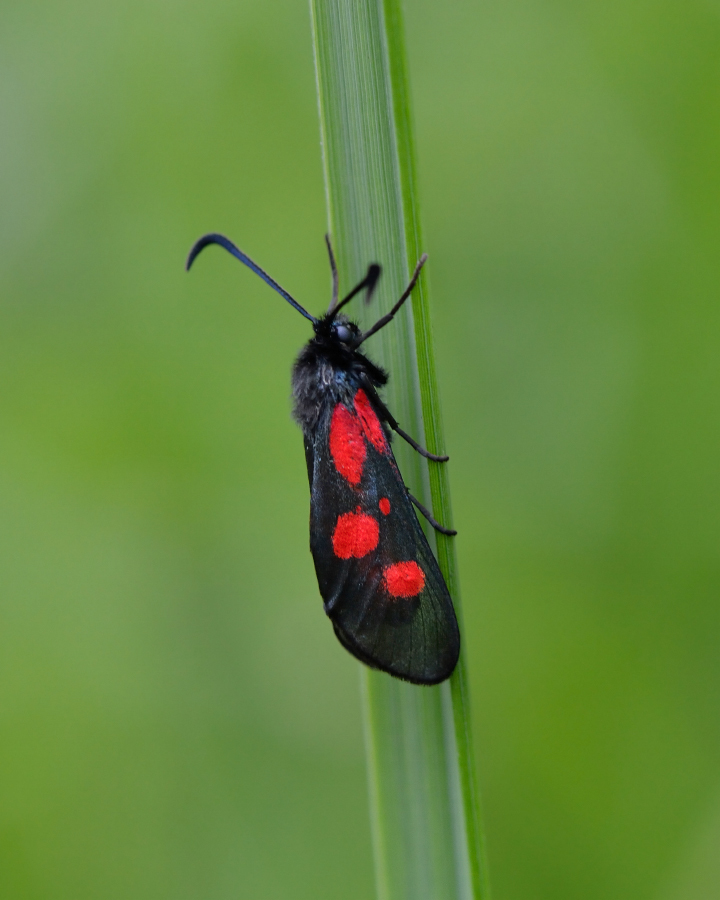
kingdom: Animalia
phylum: Arthropoda
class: Insecta
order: Lepidoptera
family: Zygaenidae
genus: Zygaena
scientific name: Zygaena viciae
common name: New forest burnet
